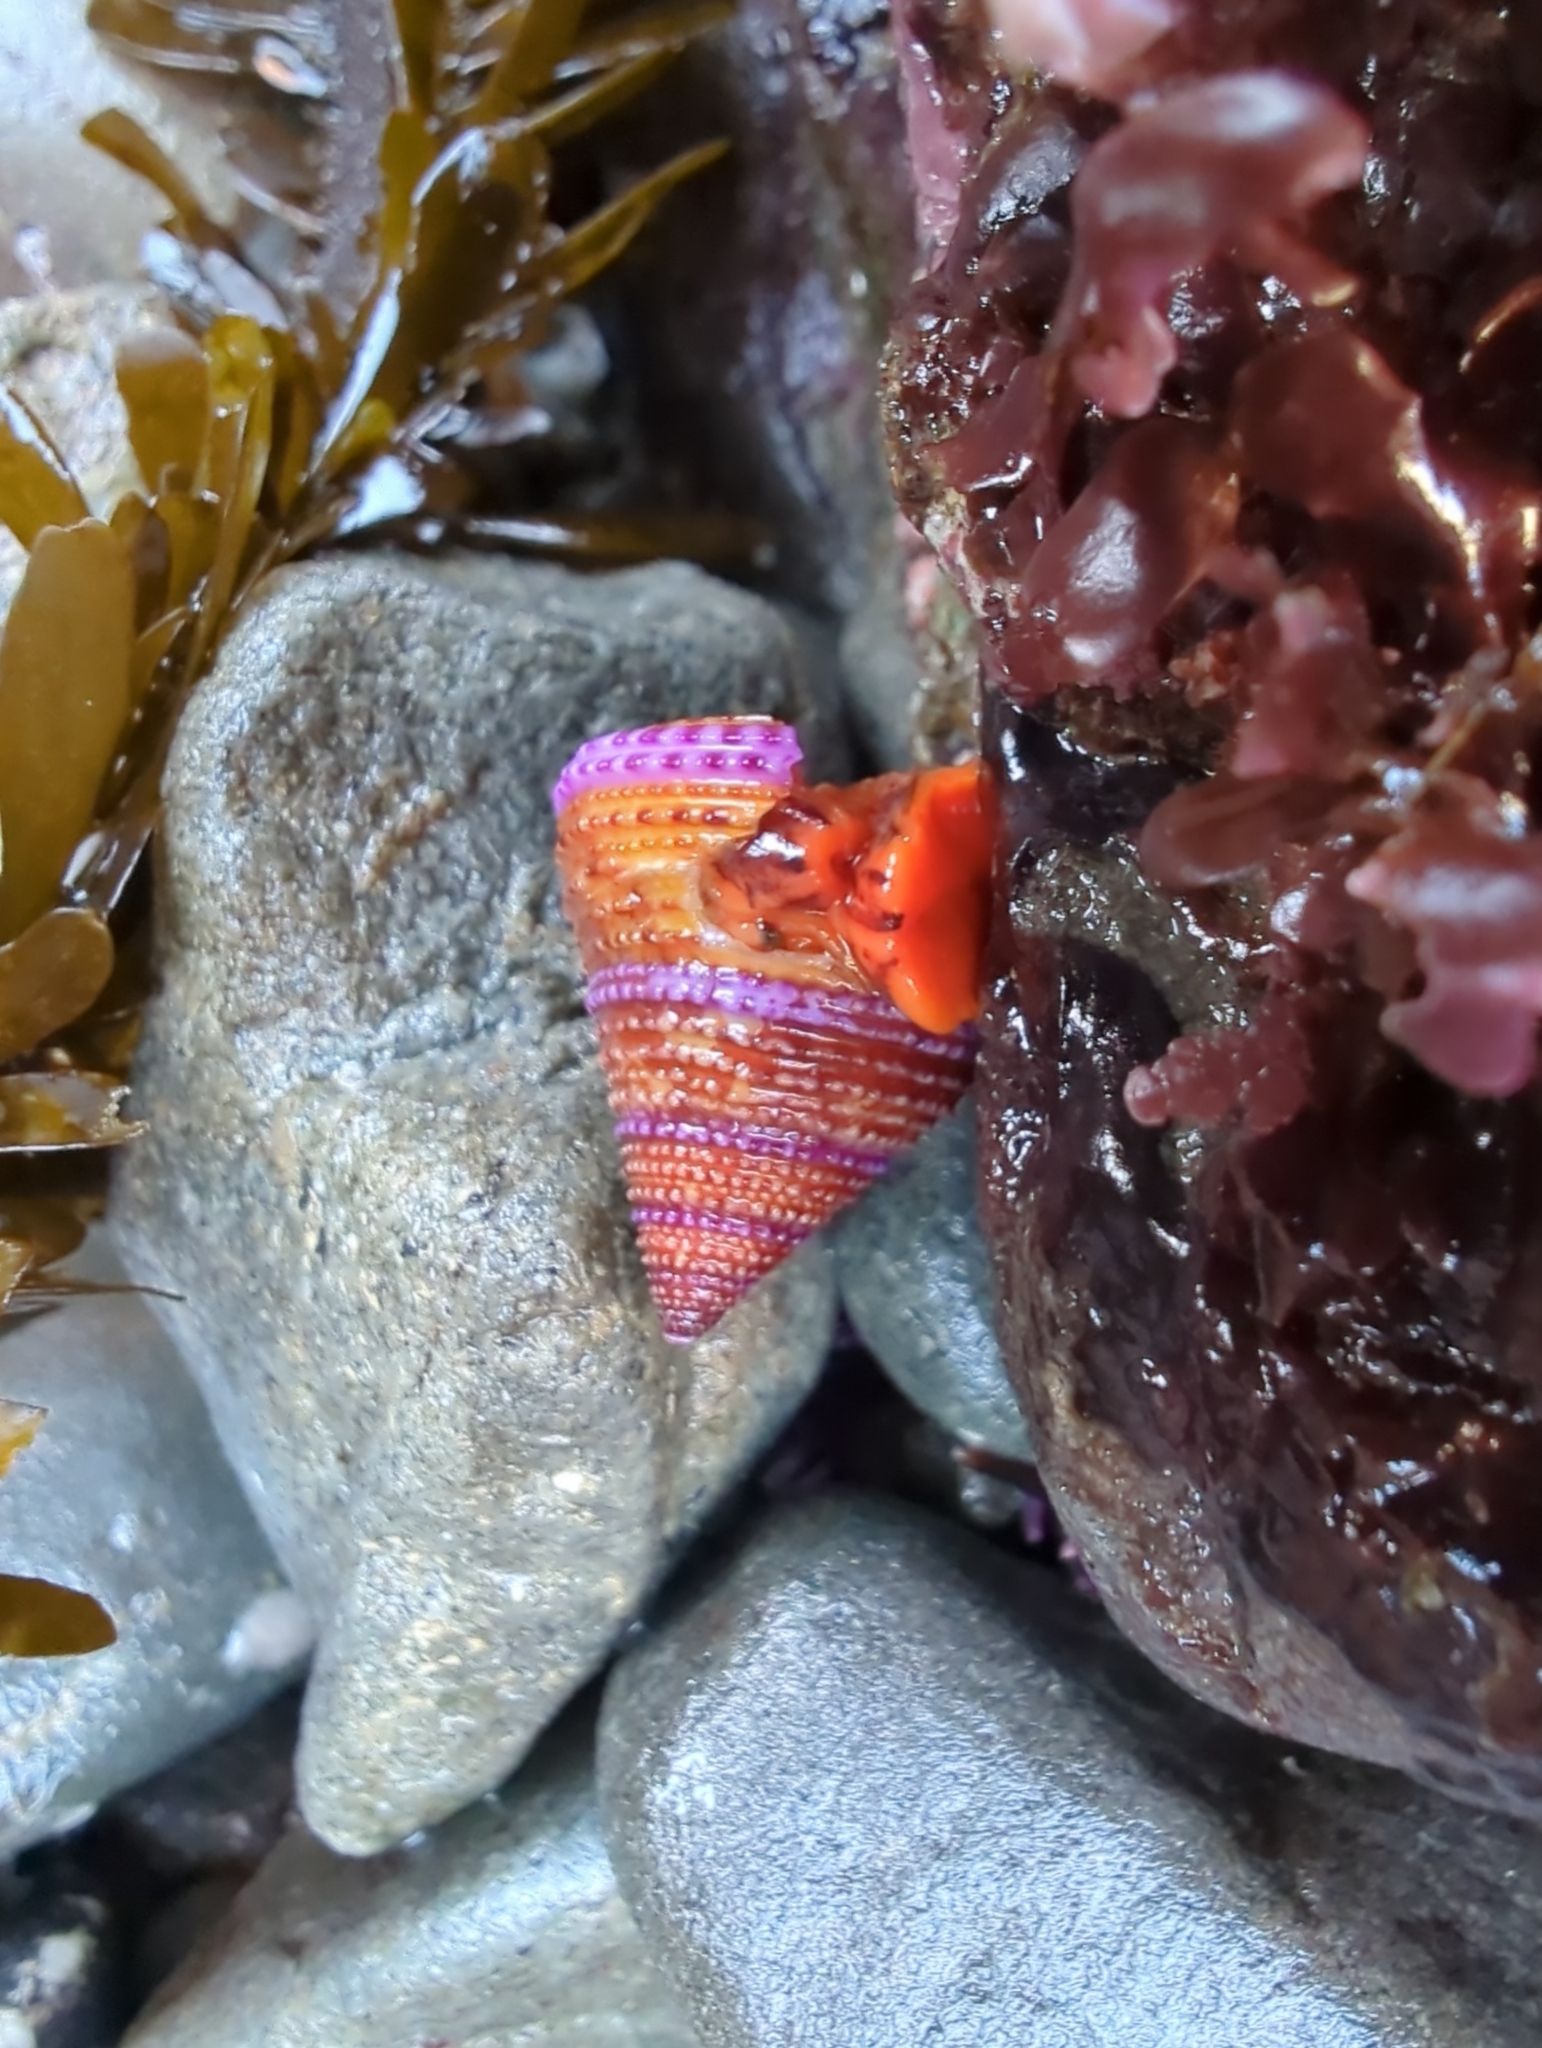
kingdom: Animalia
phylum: Mollusca
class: Gastropoda
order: Trochida
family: Calliostomatidae
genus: Calliostoma
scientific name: Calliostoma annulatum
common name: Blue-ring topsnail
